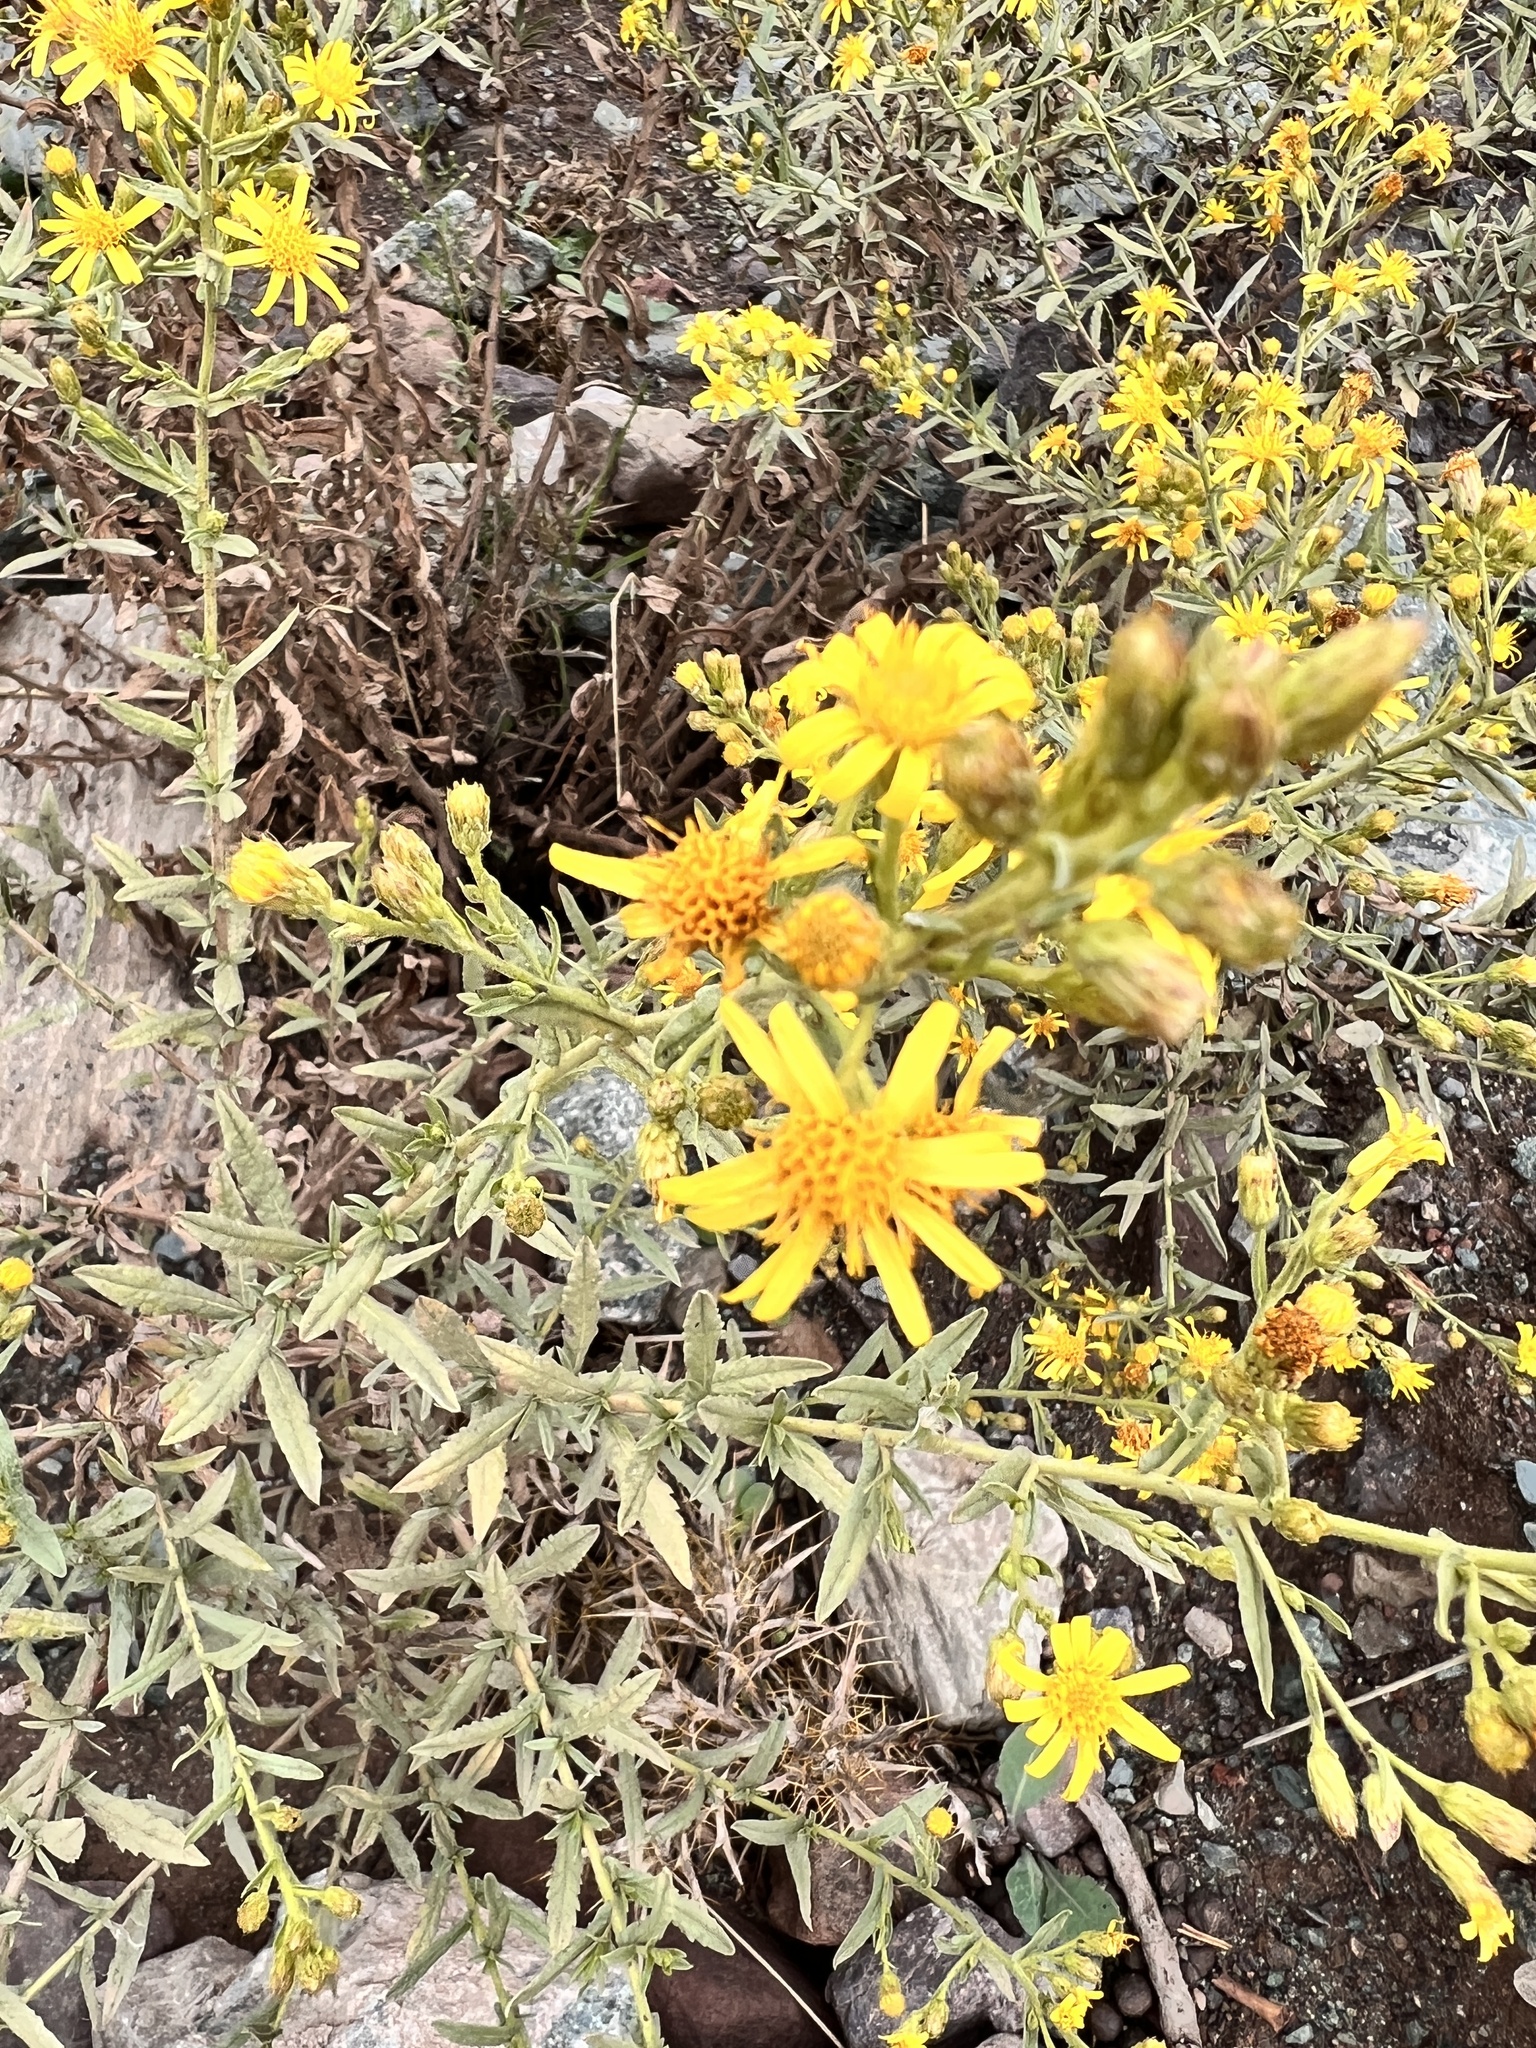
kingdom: Plantae
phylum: Tracheophyta
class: Magnoliopsida
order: Asterales
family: Asteraceae
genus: Dittrichia
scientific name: Dittrichia viscosa
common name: Woody fleabane
